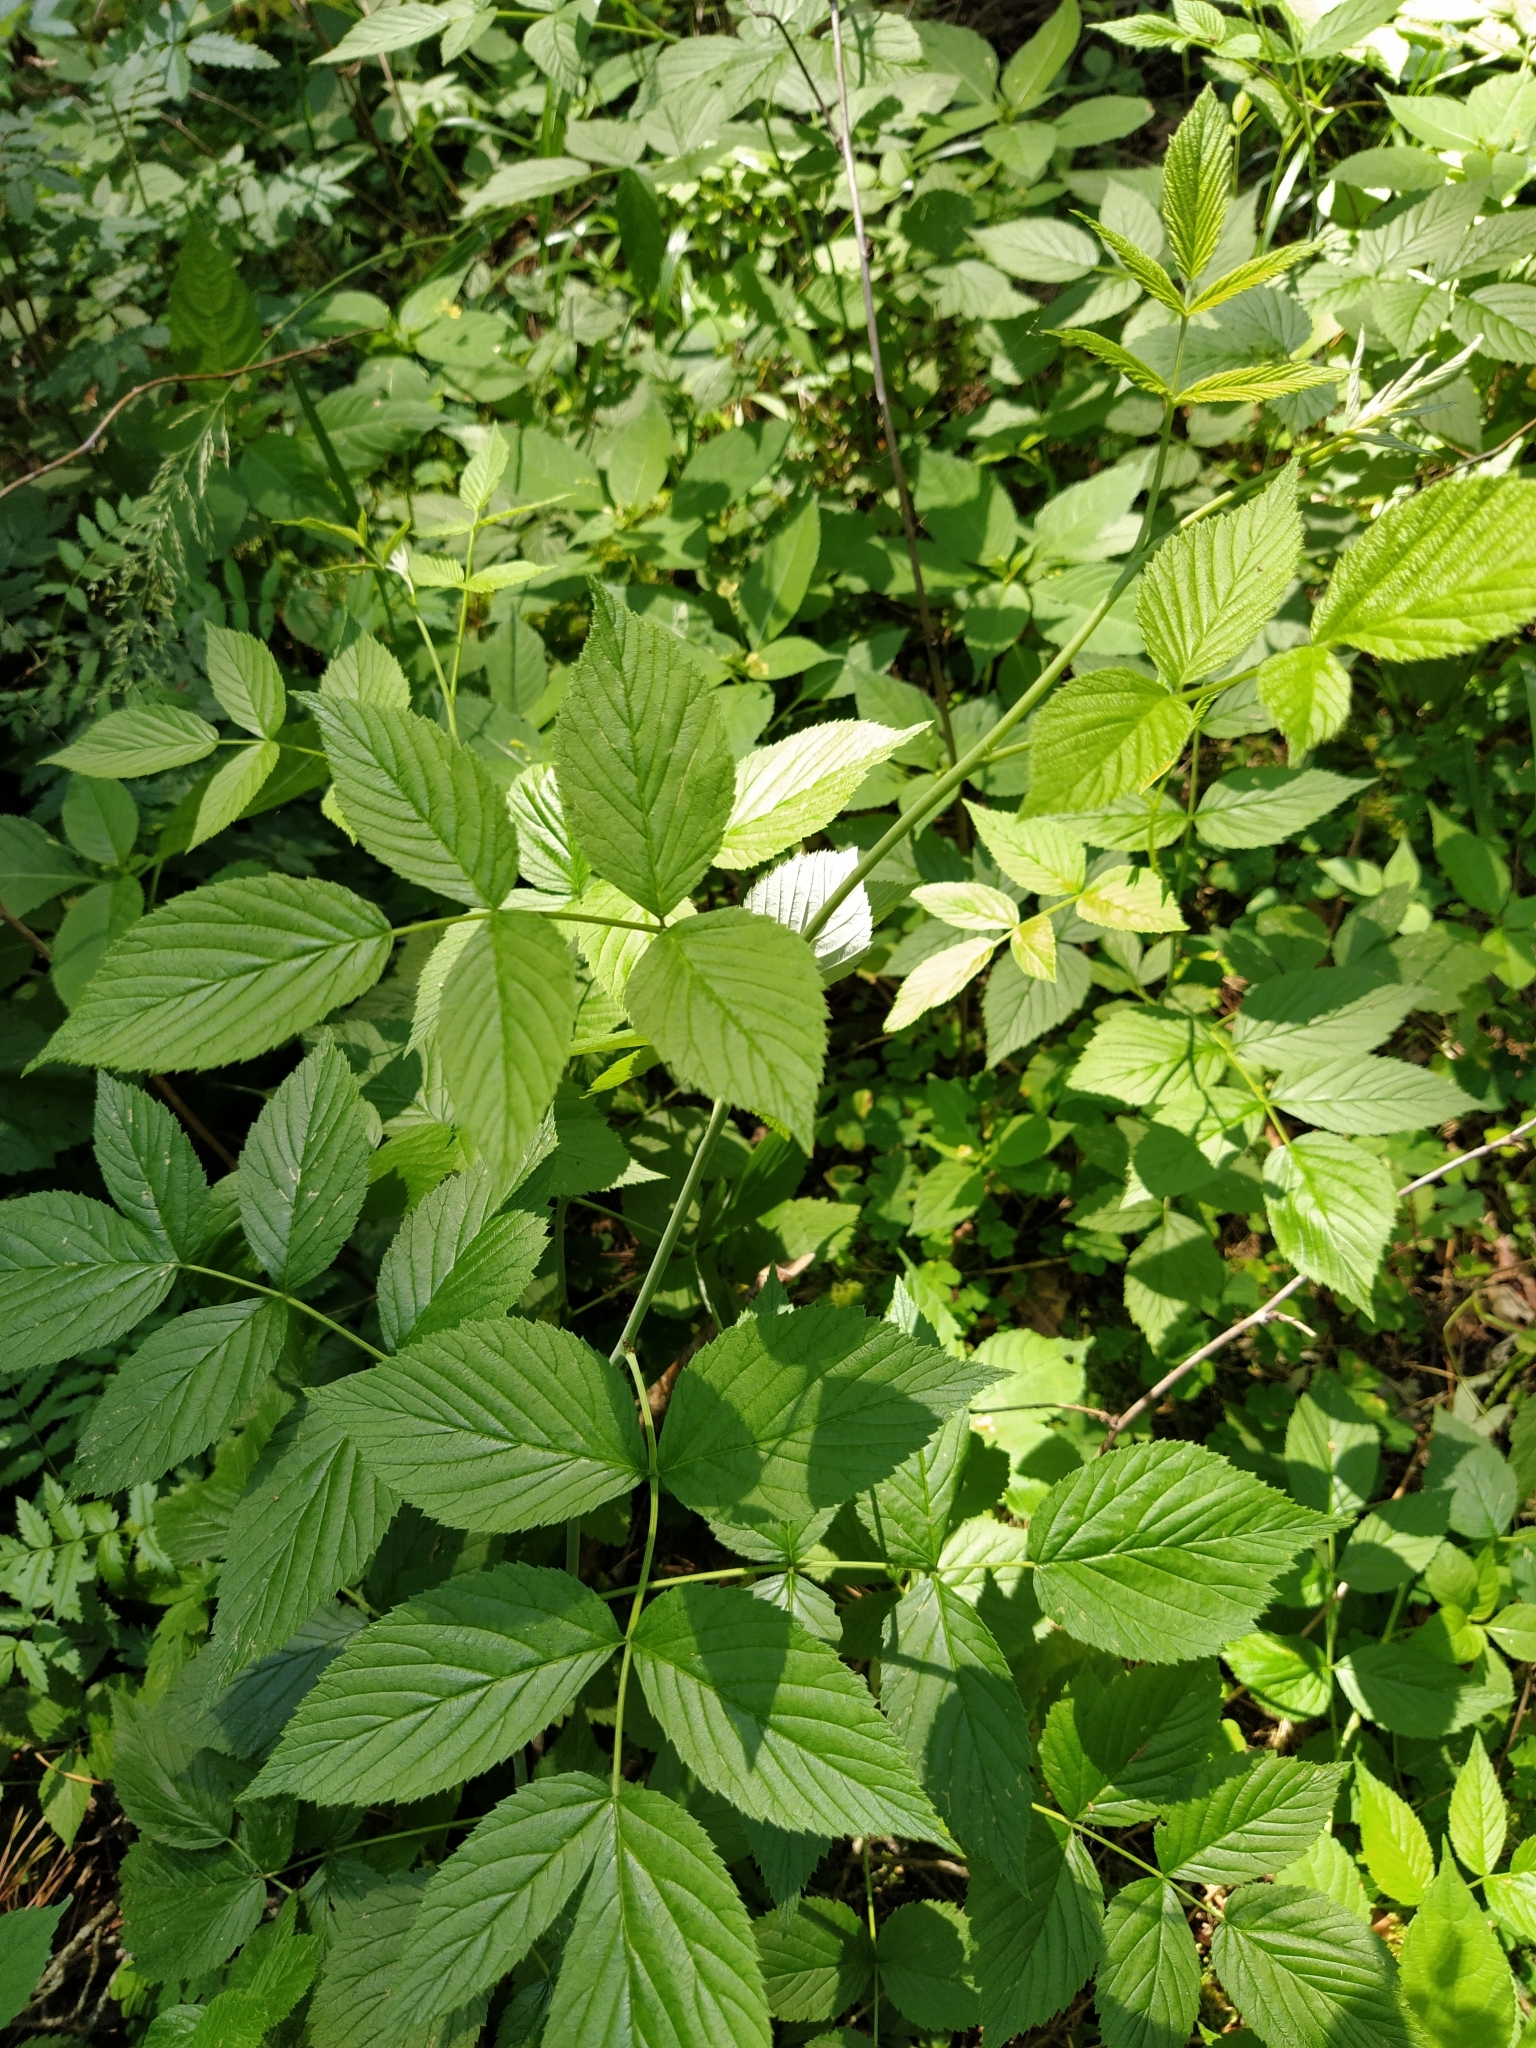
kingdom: Plantae
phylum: Tracheophyta
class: Magnoliopsida
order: Rosales
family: Rosaceae
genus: Rubus
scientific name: Rubus idaeus
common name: Raspberry
